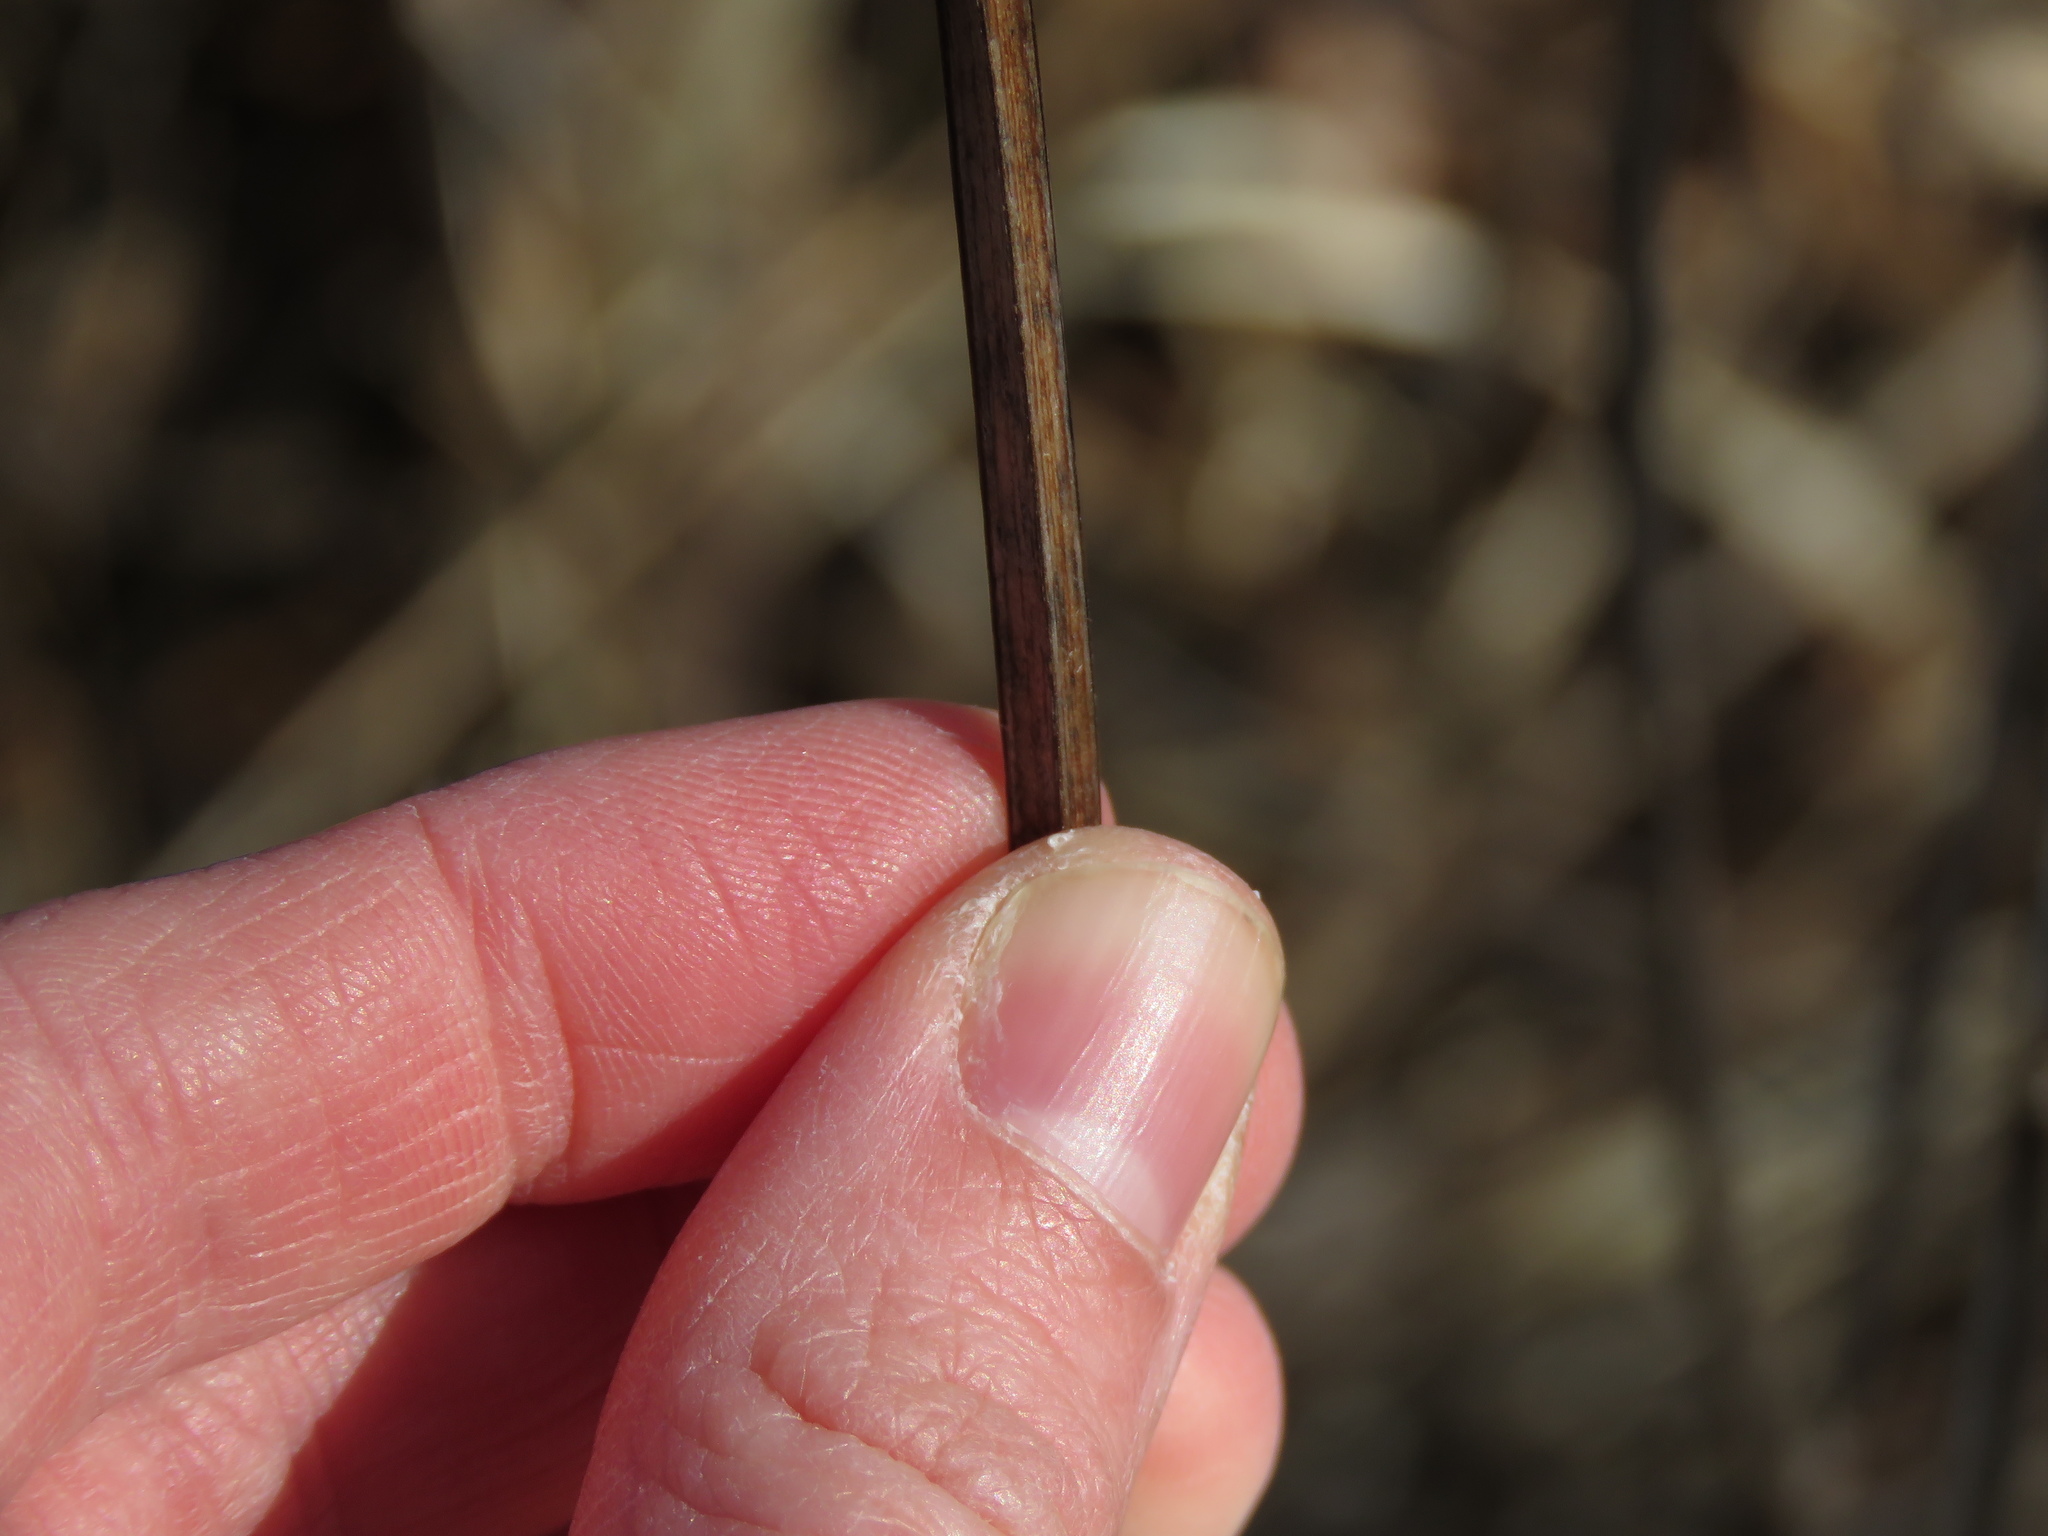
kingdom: Plantae
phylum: Tracheophyta
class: Magnoliopsida
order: Lamiales
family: Lamiaceae
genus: Agastache
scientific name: Agastache nepetoides
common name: Catnip giant hyssop
